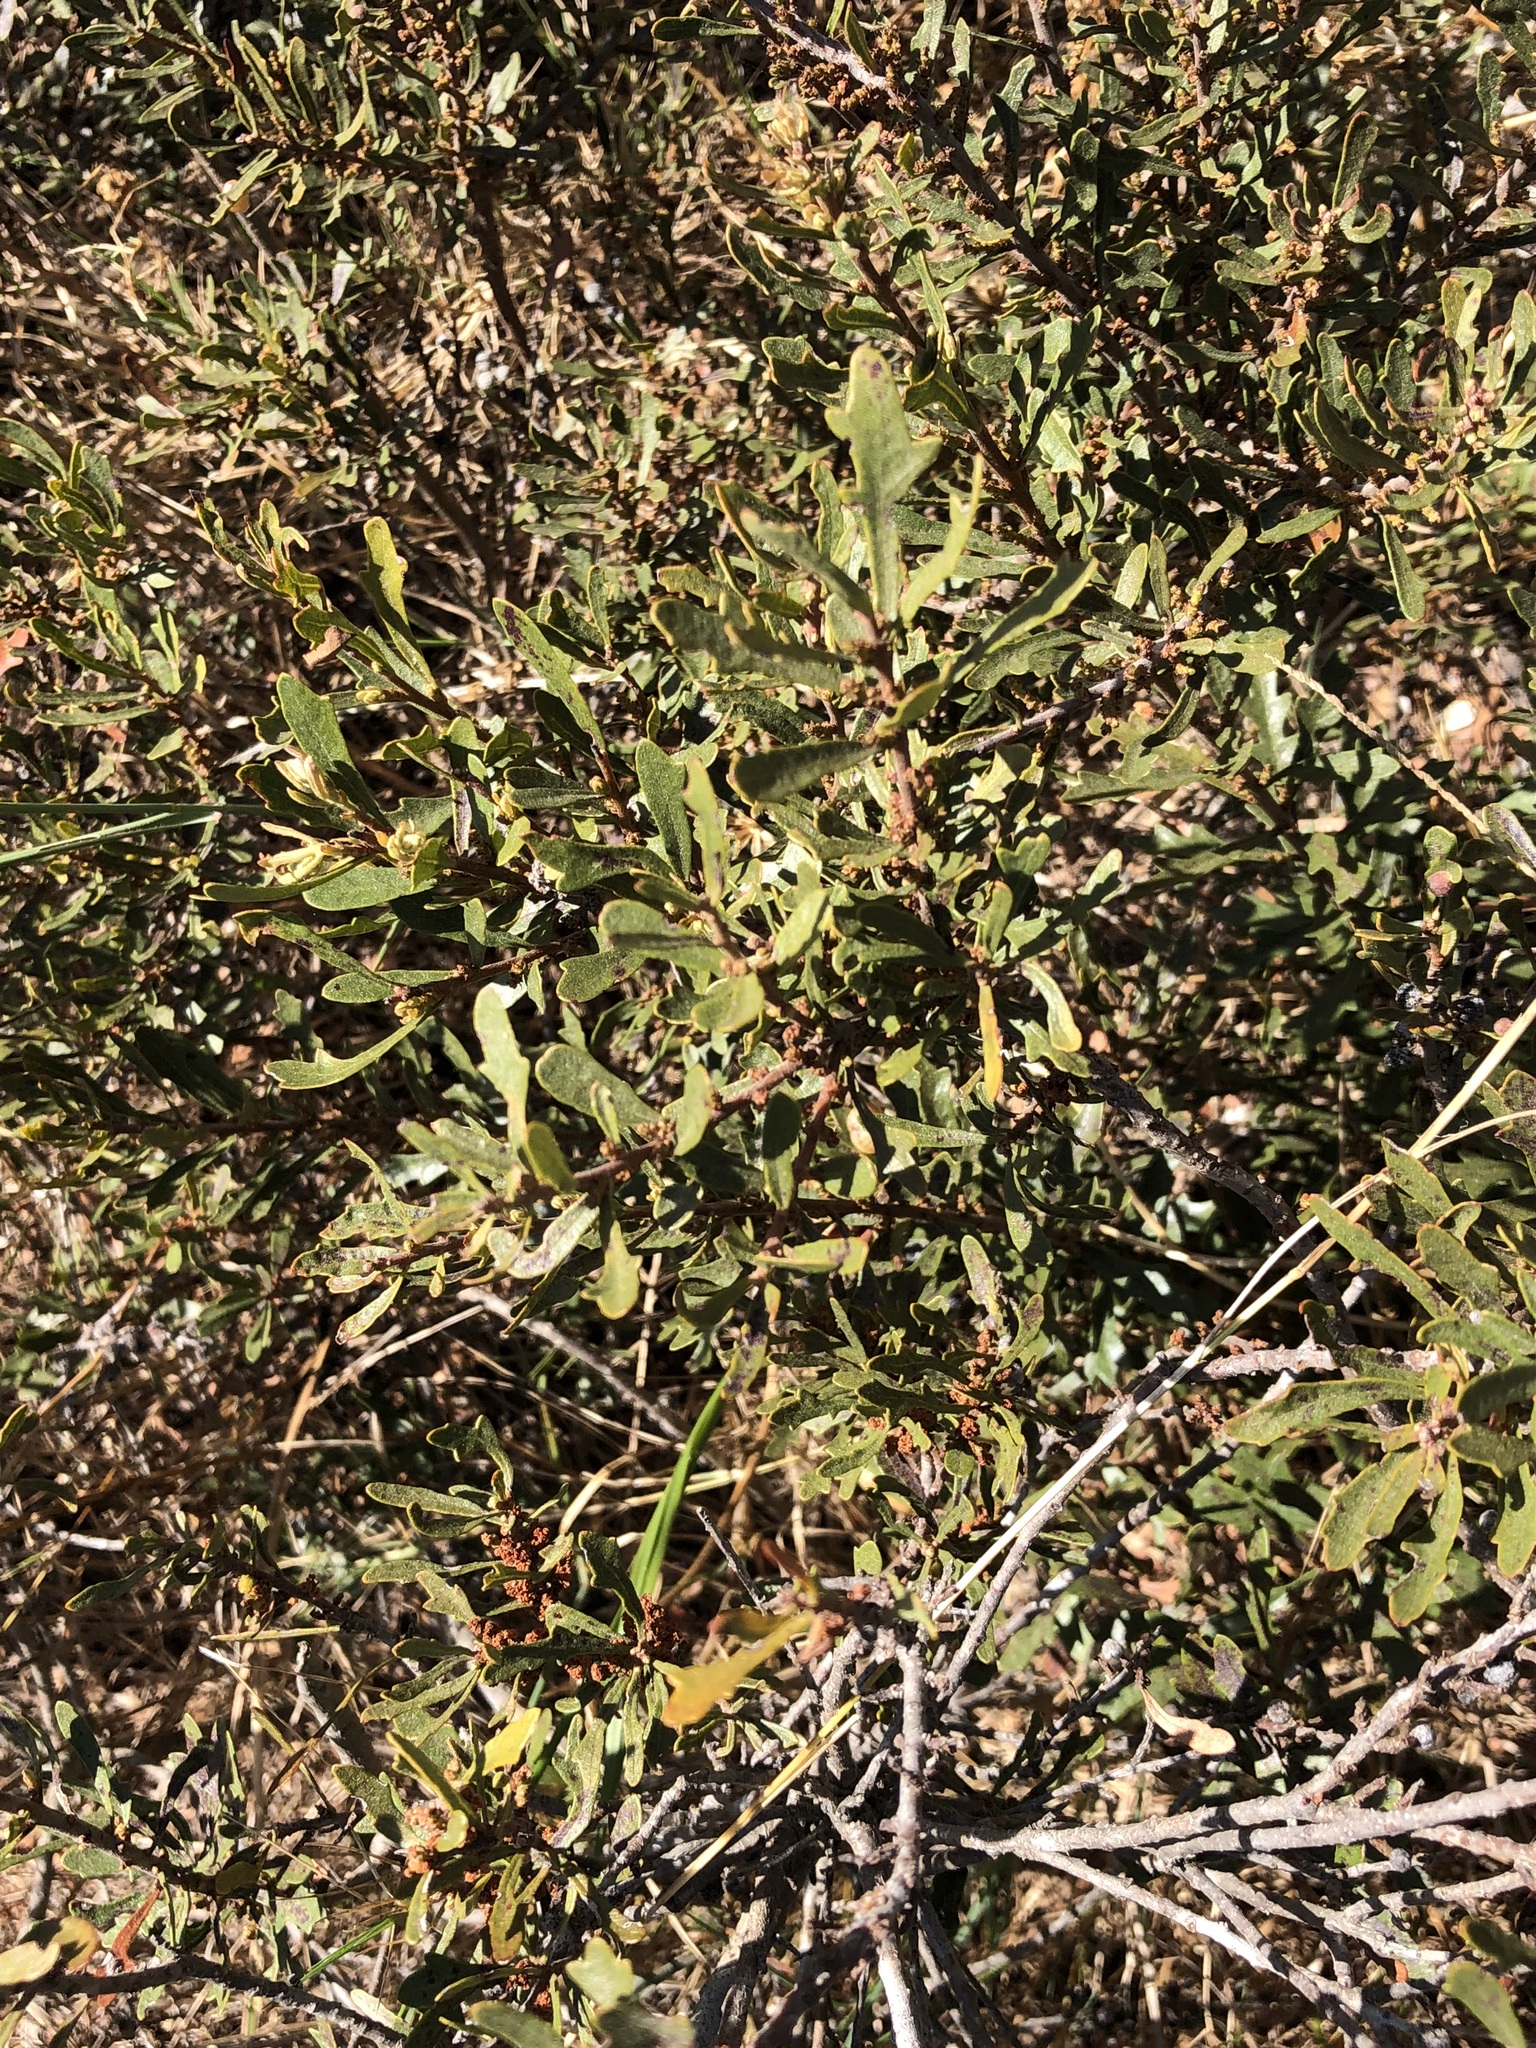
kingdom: Plantae
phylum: Tracheophyta
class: Magnoliopsida
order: Fagales
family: Myricaceae
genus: Morella
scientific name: Morella quercifolia
